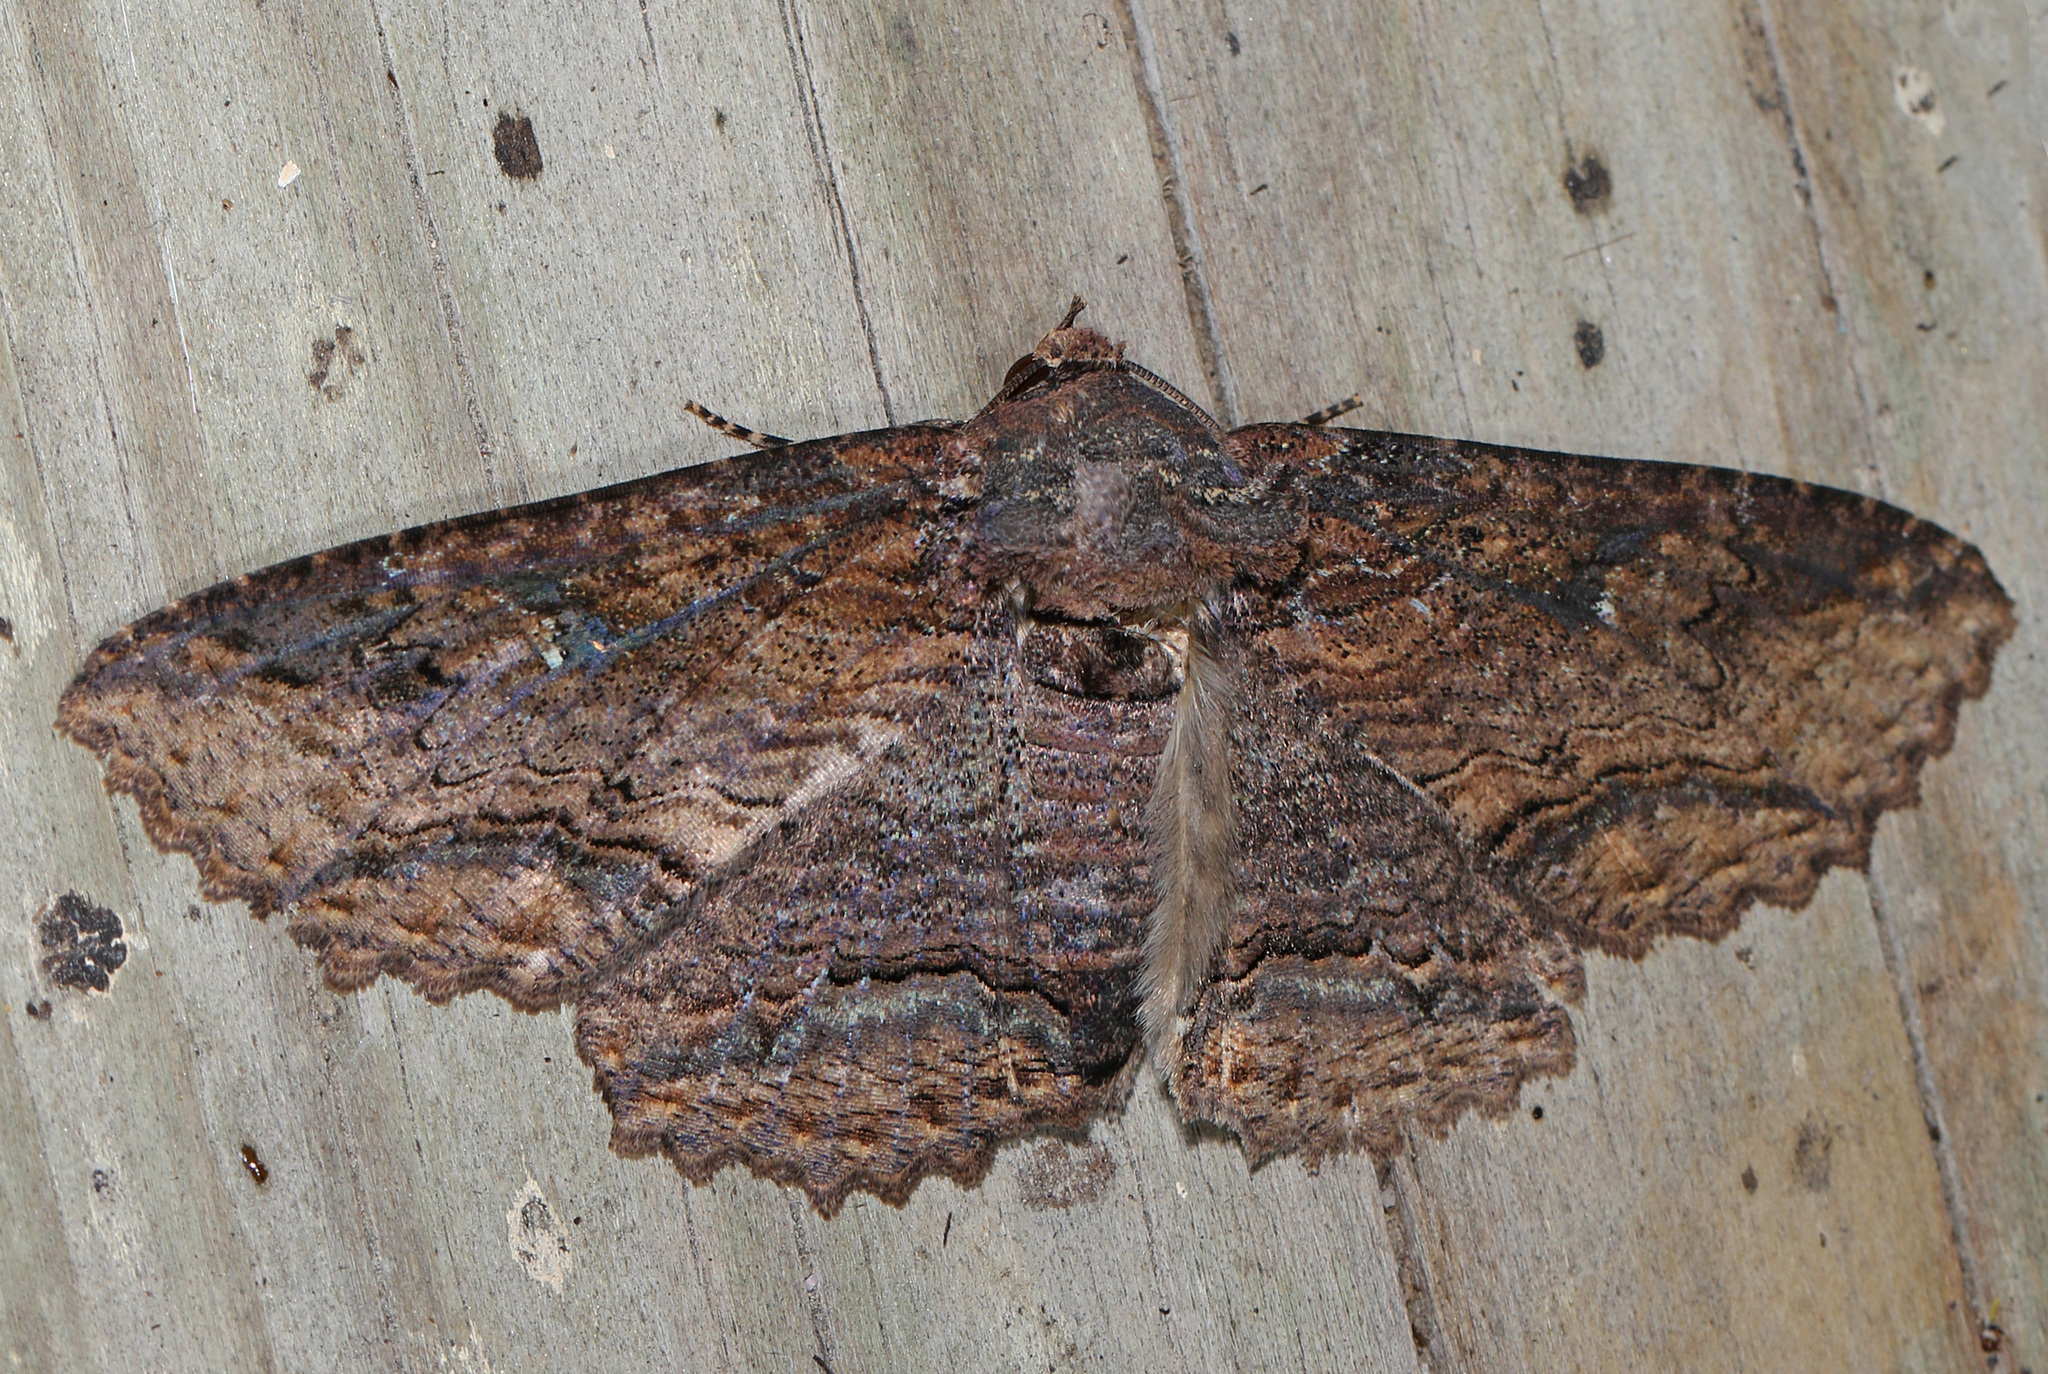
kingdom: Animalia
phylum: Arthropoda
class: Insecta
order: Lepidoptera
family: Erebidae
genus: Zale
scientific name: Zale lunata
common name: Lunate zale moth
